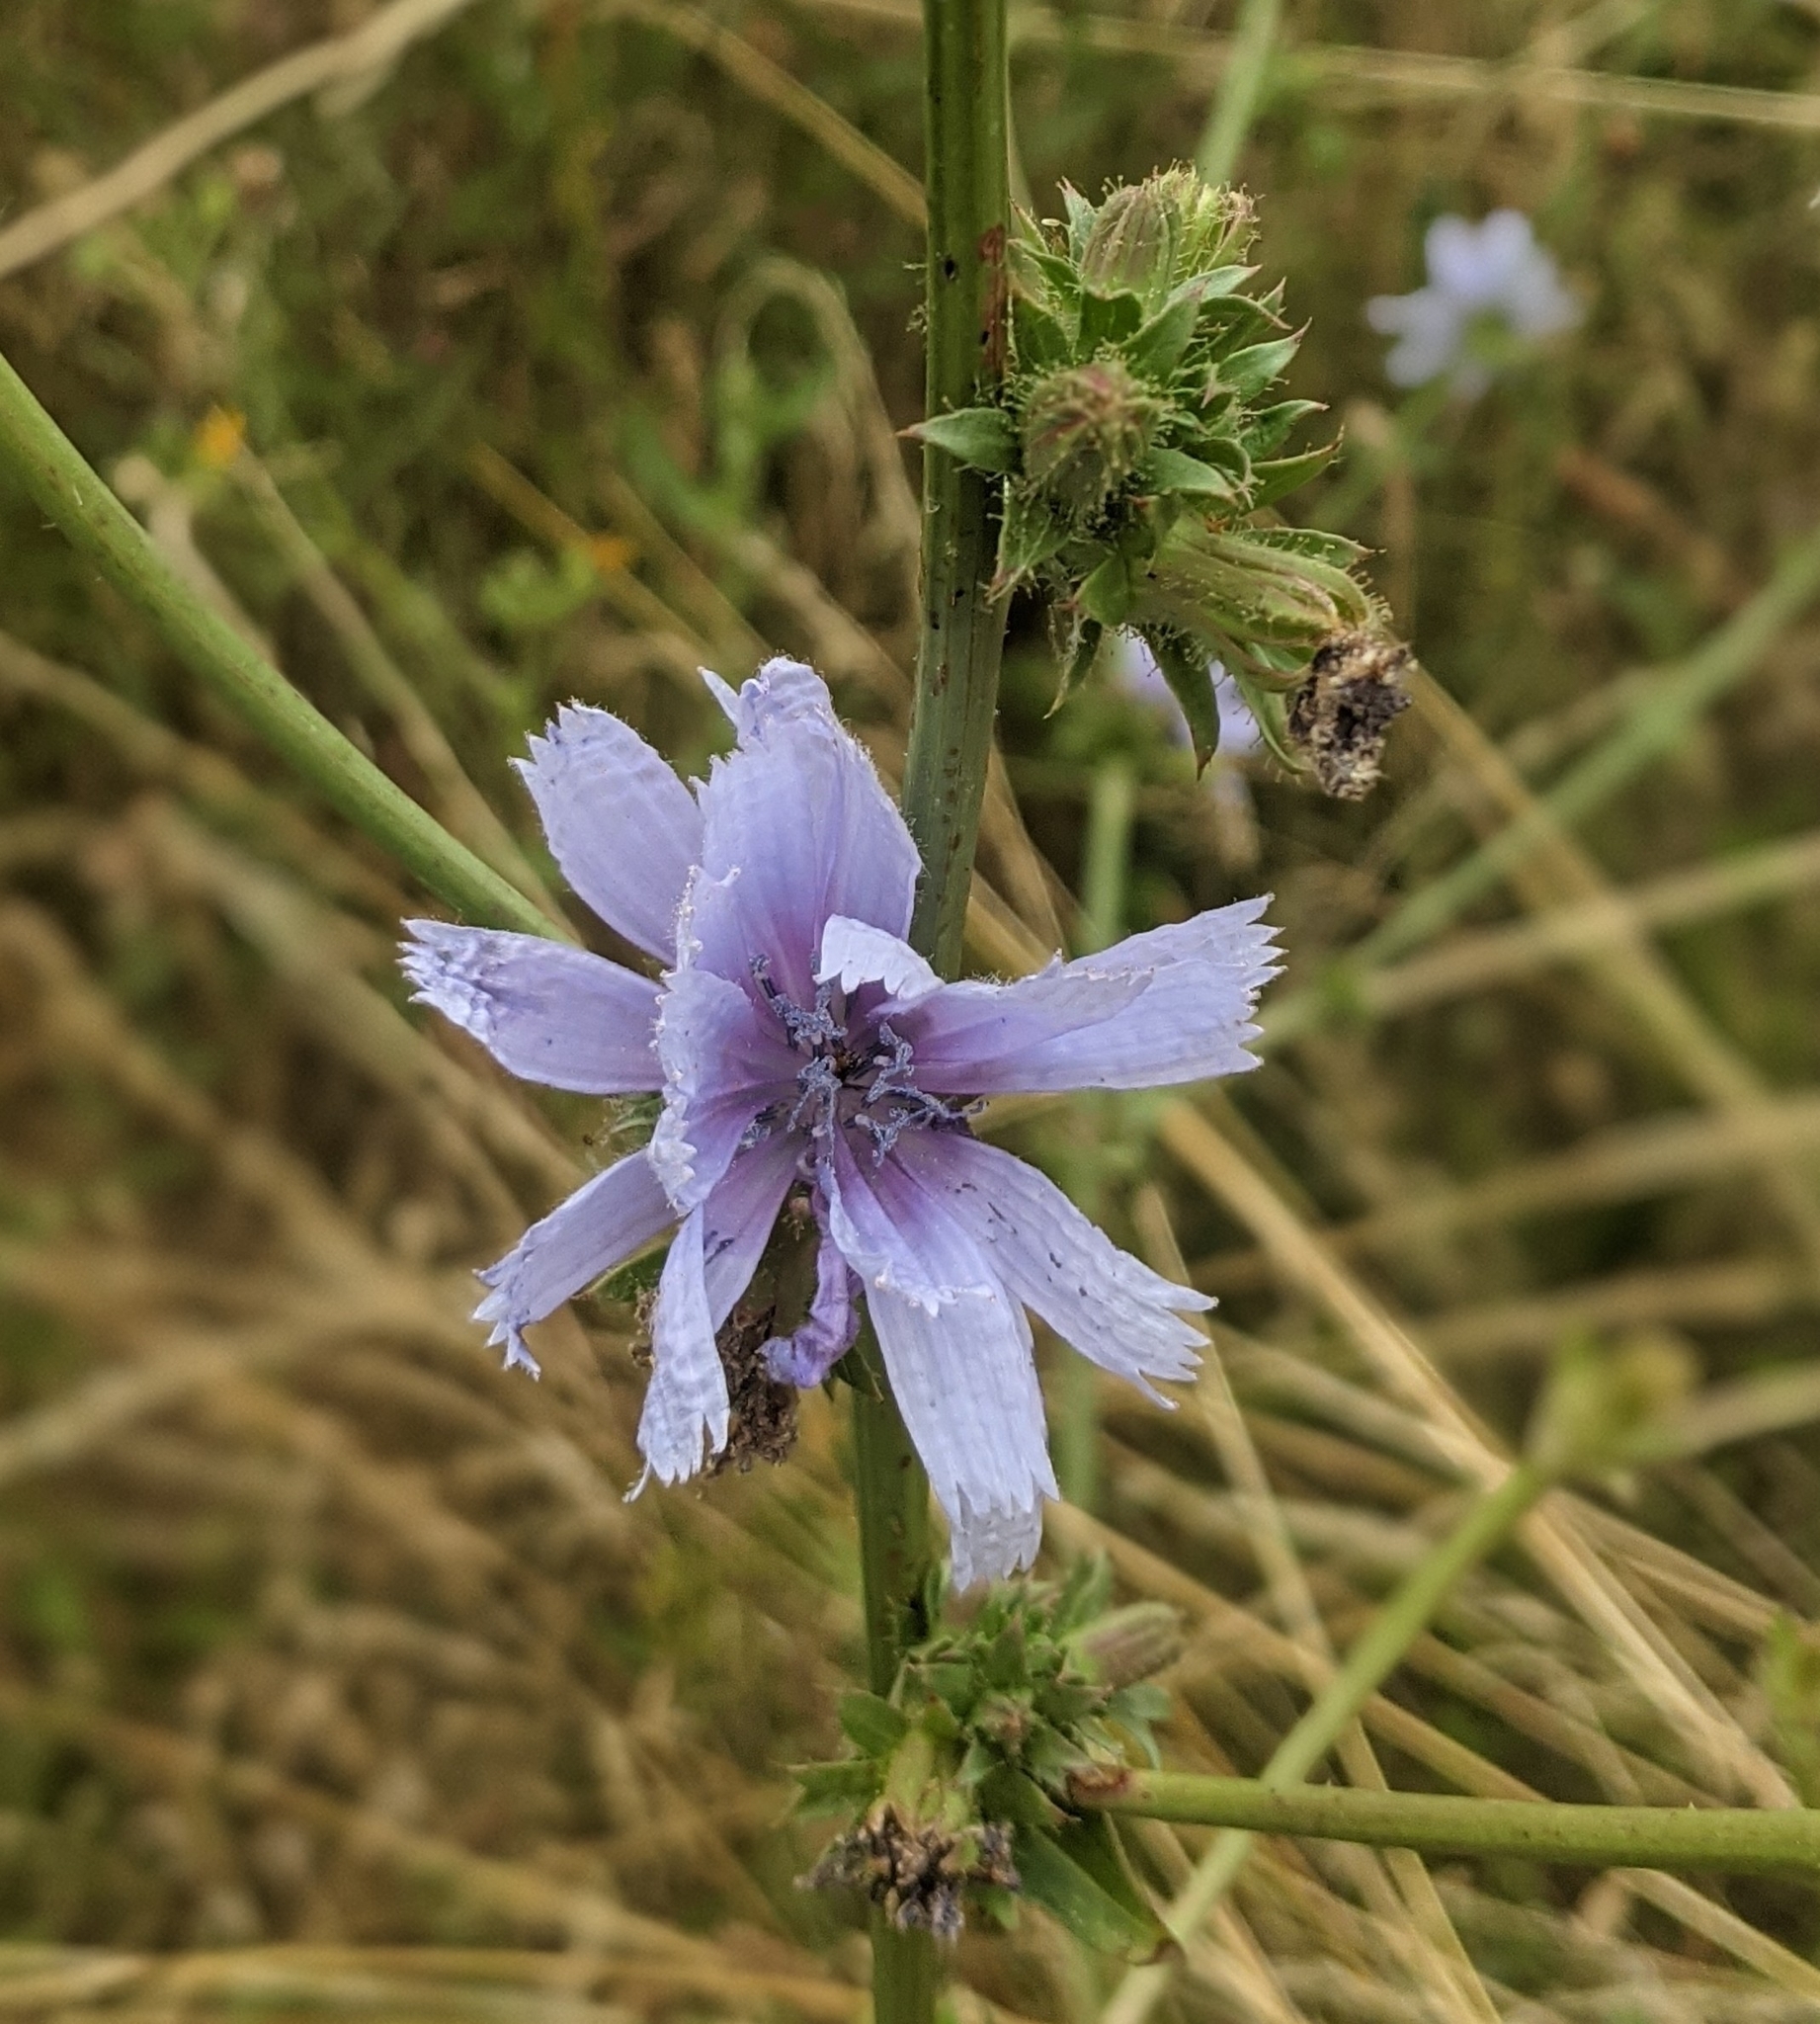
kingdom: Plantae
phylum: Tracheophyta
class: Magnoliopsida
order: Asterales
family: Asteraceae
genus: Cichorium
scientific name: Cichorium intybus
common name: Chicory
